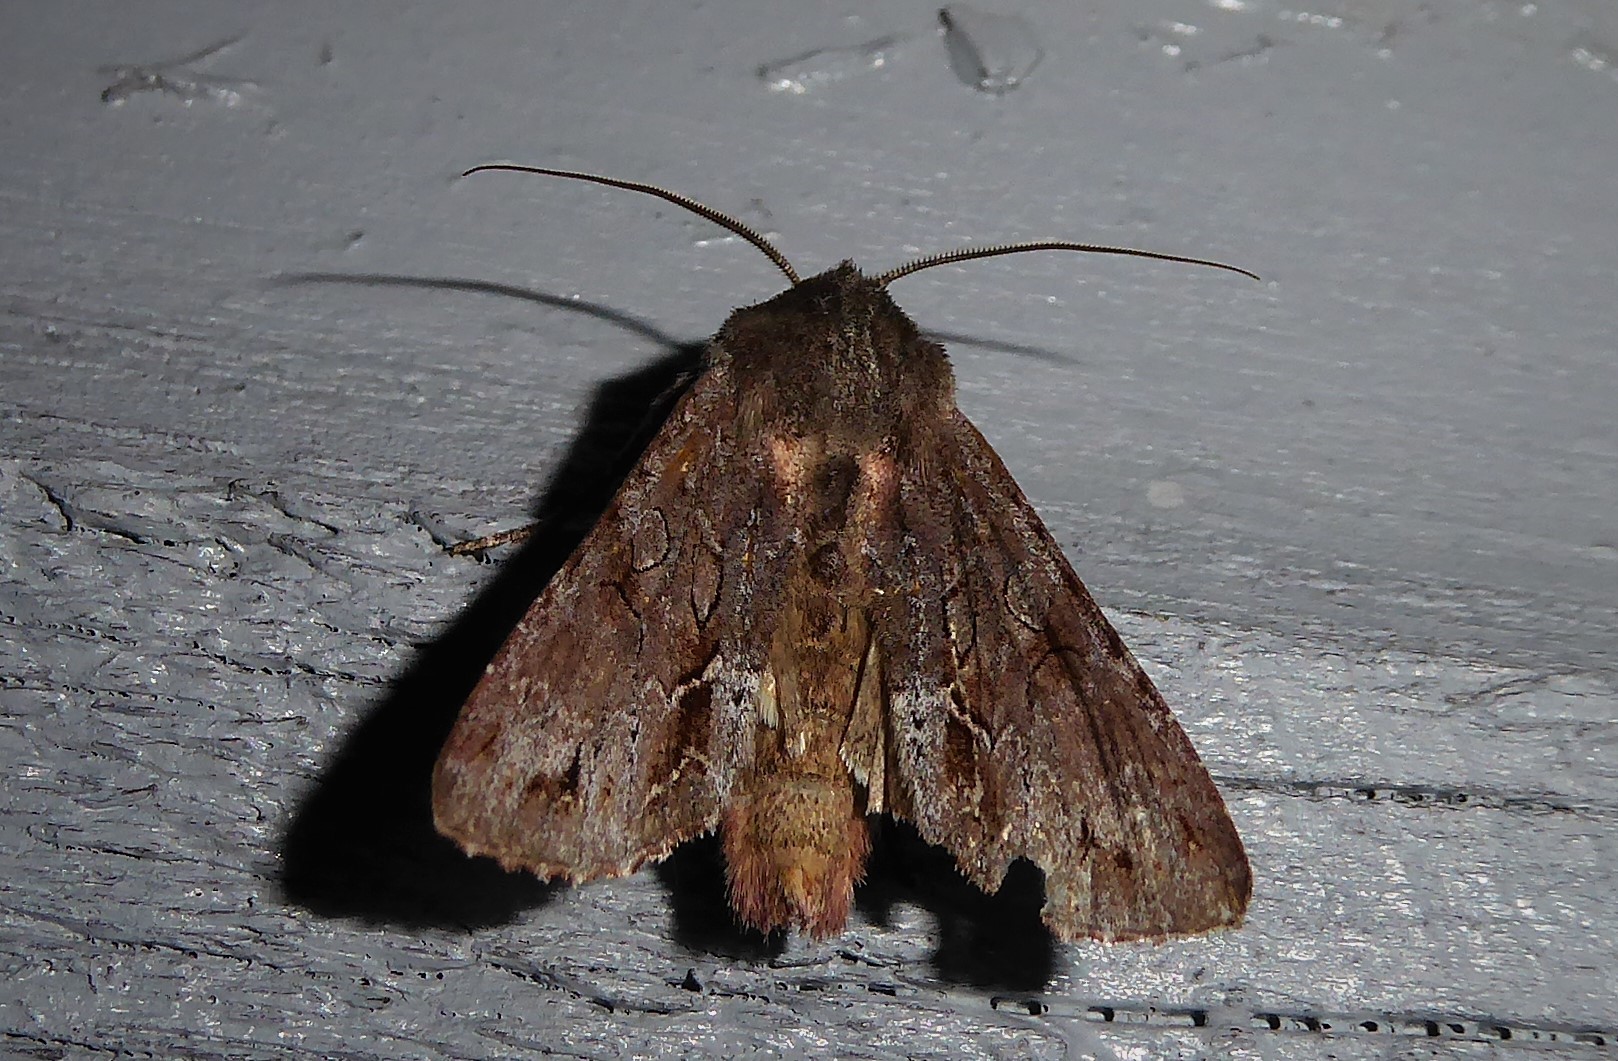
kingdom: Animalia
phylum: Arthropoda
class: Insecta
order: Lepidoptera
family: Noctuidae
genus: Ichneutica
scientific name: Ichneutica
